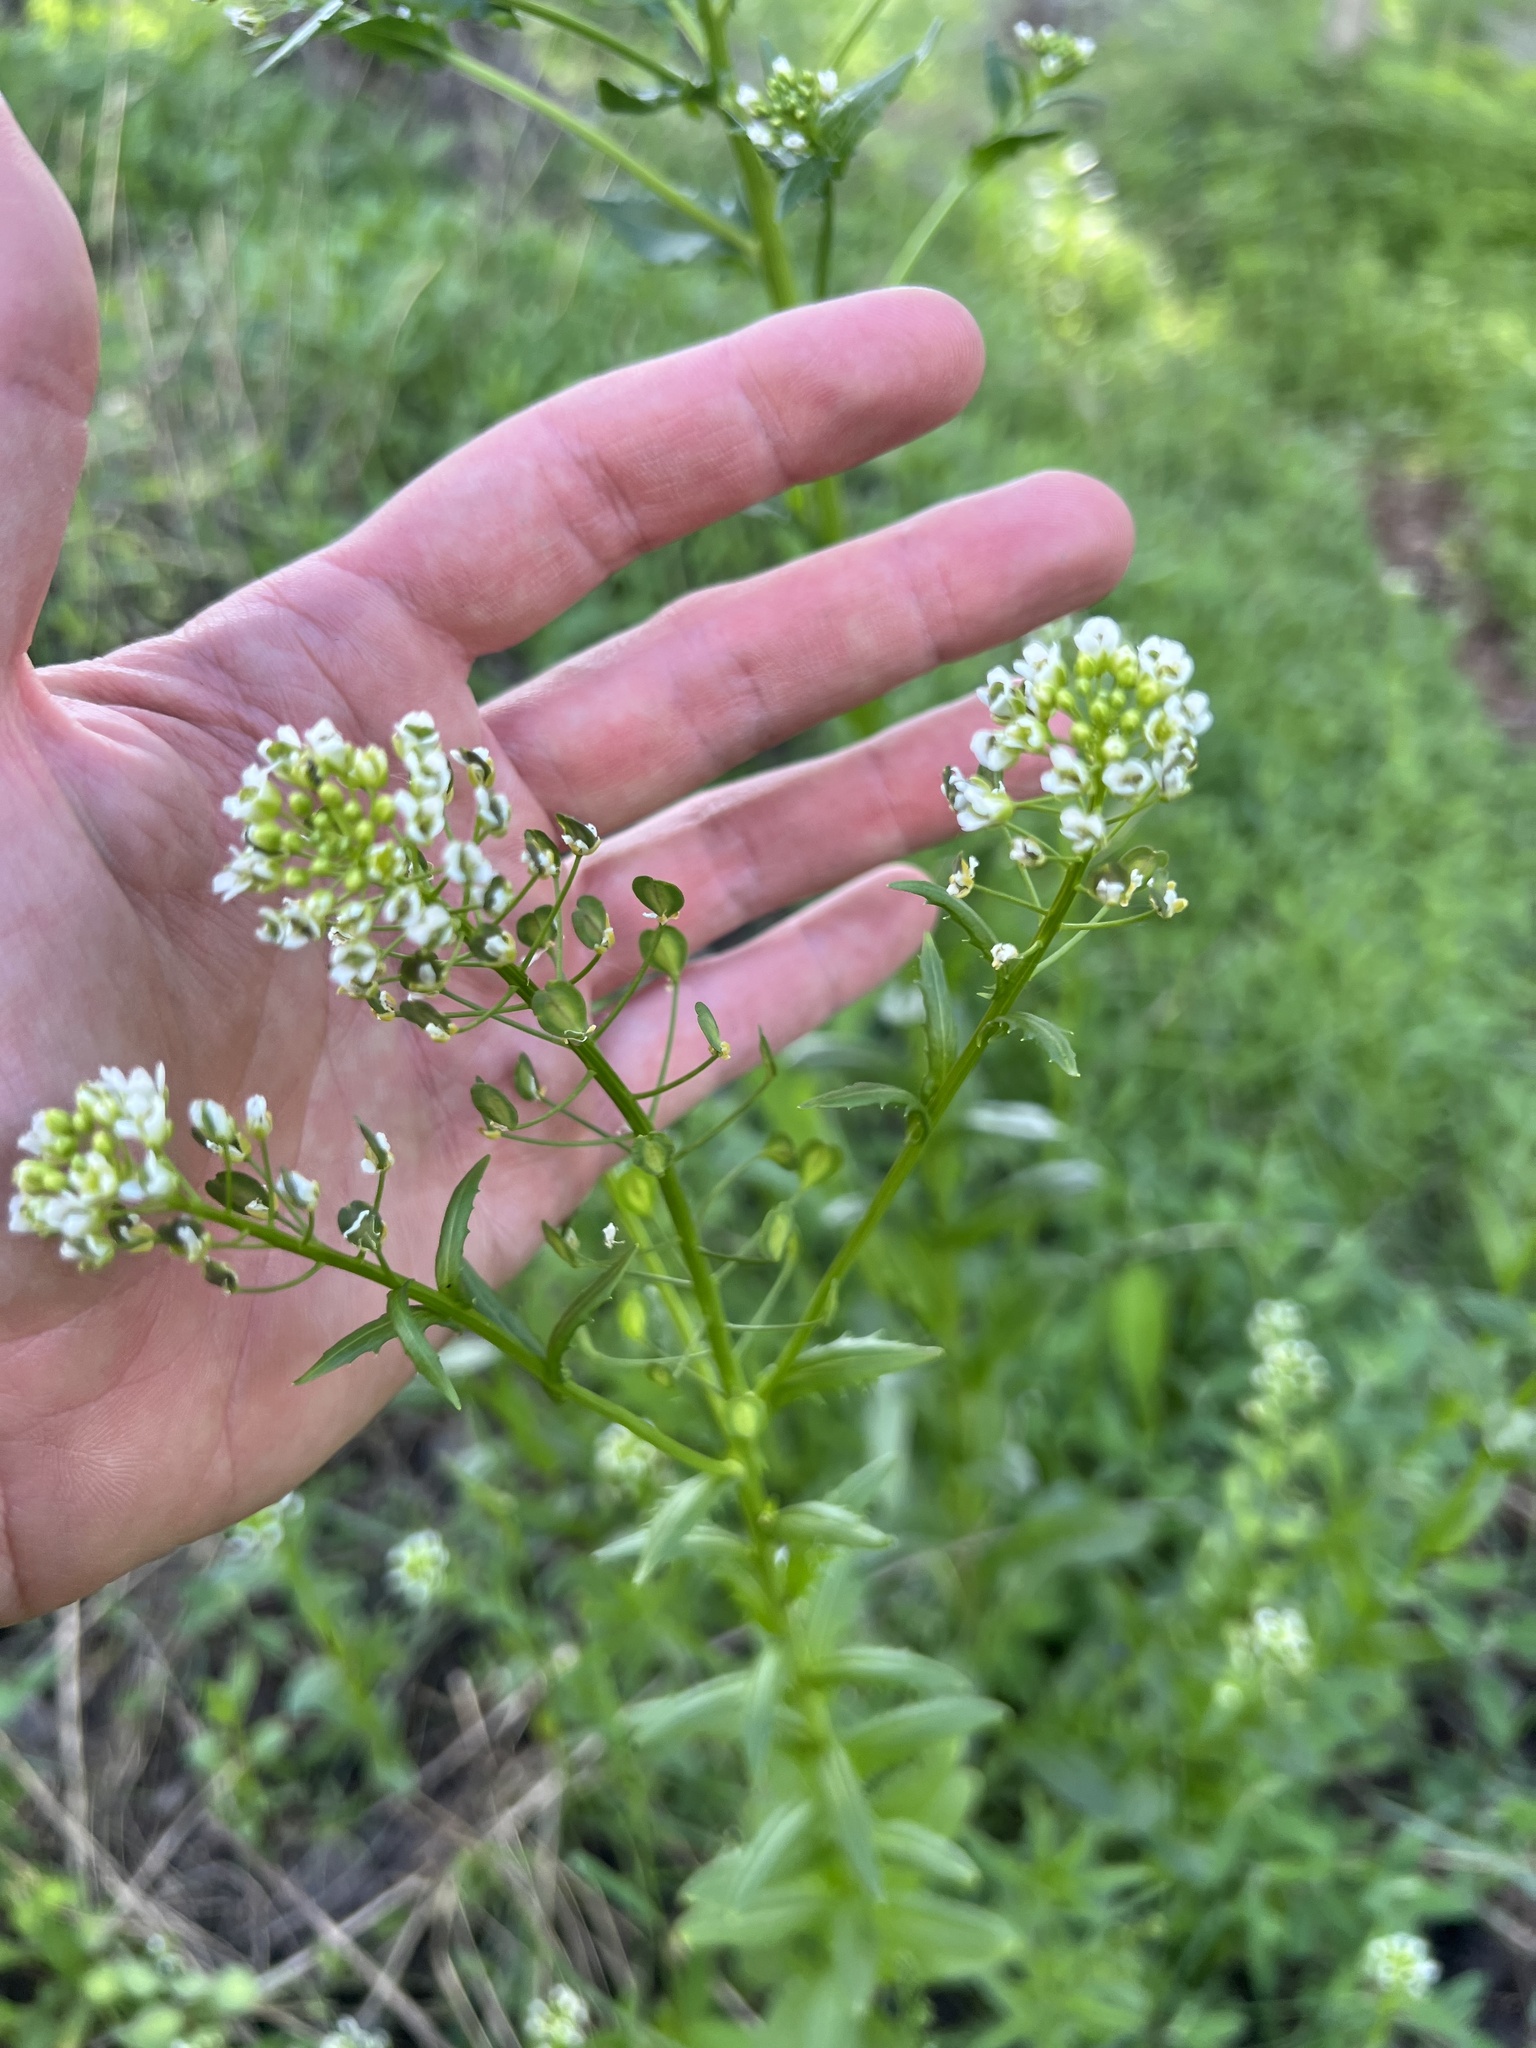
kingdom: Plantae
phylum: Tracheophyta
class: Magnoliopsida
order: Brassicales
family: Brassicaceae
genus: Thlaspi
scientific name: Thlaspi arvense
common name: Field pennycress
